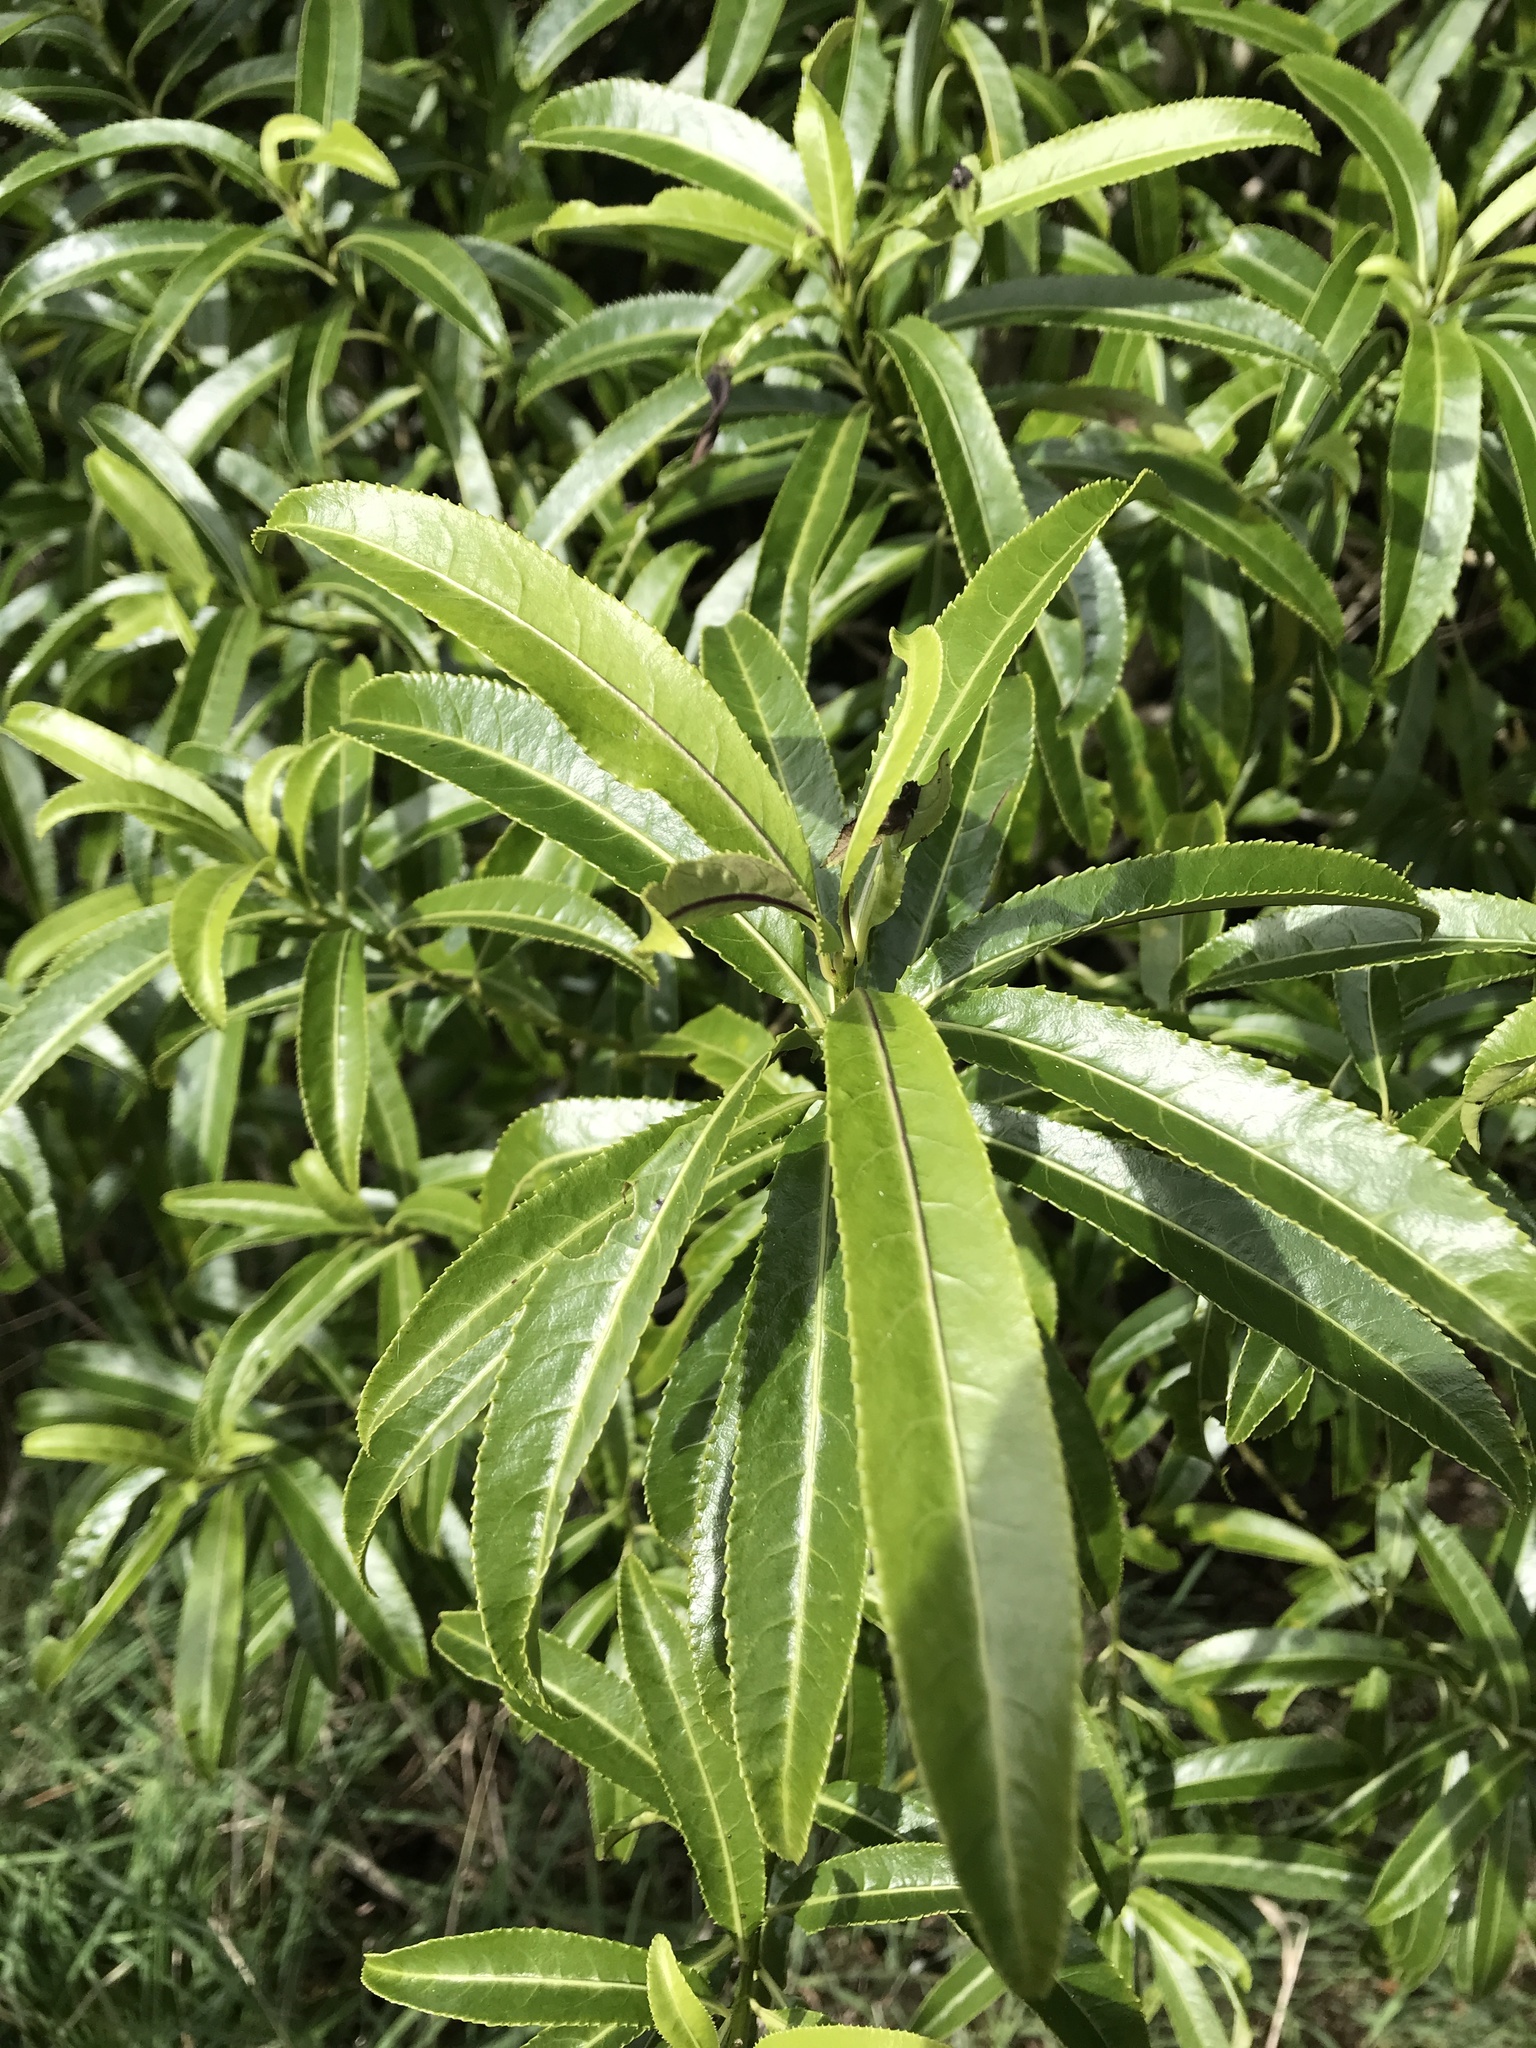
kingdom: Plantae
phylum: Tracheophyta
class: Magnoliopsida
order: Malpighiales
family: Violaceae
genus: Melicytus
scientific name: Melicytus lanceolatus
